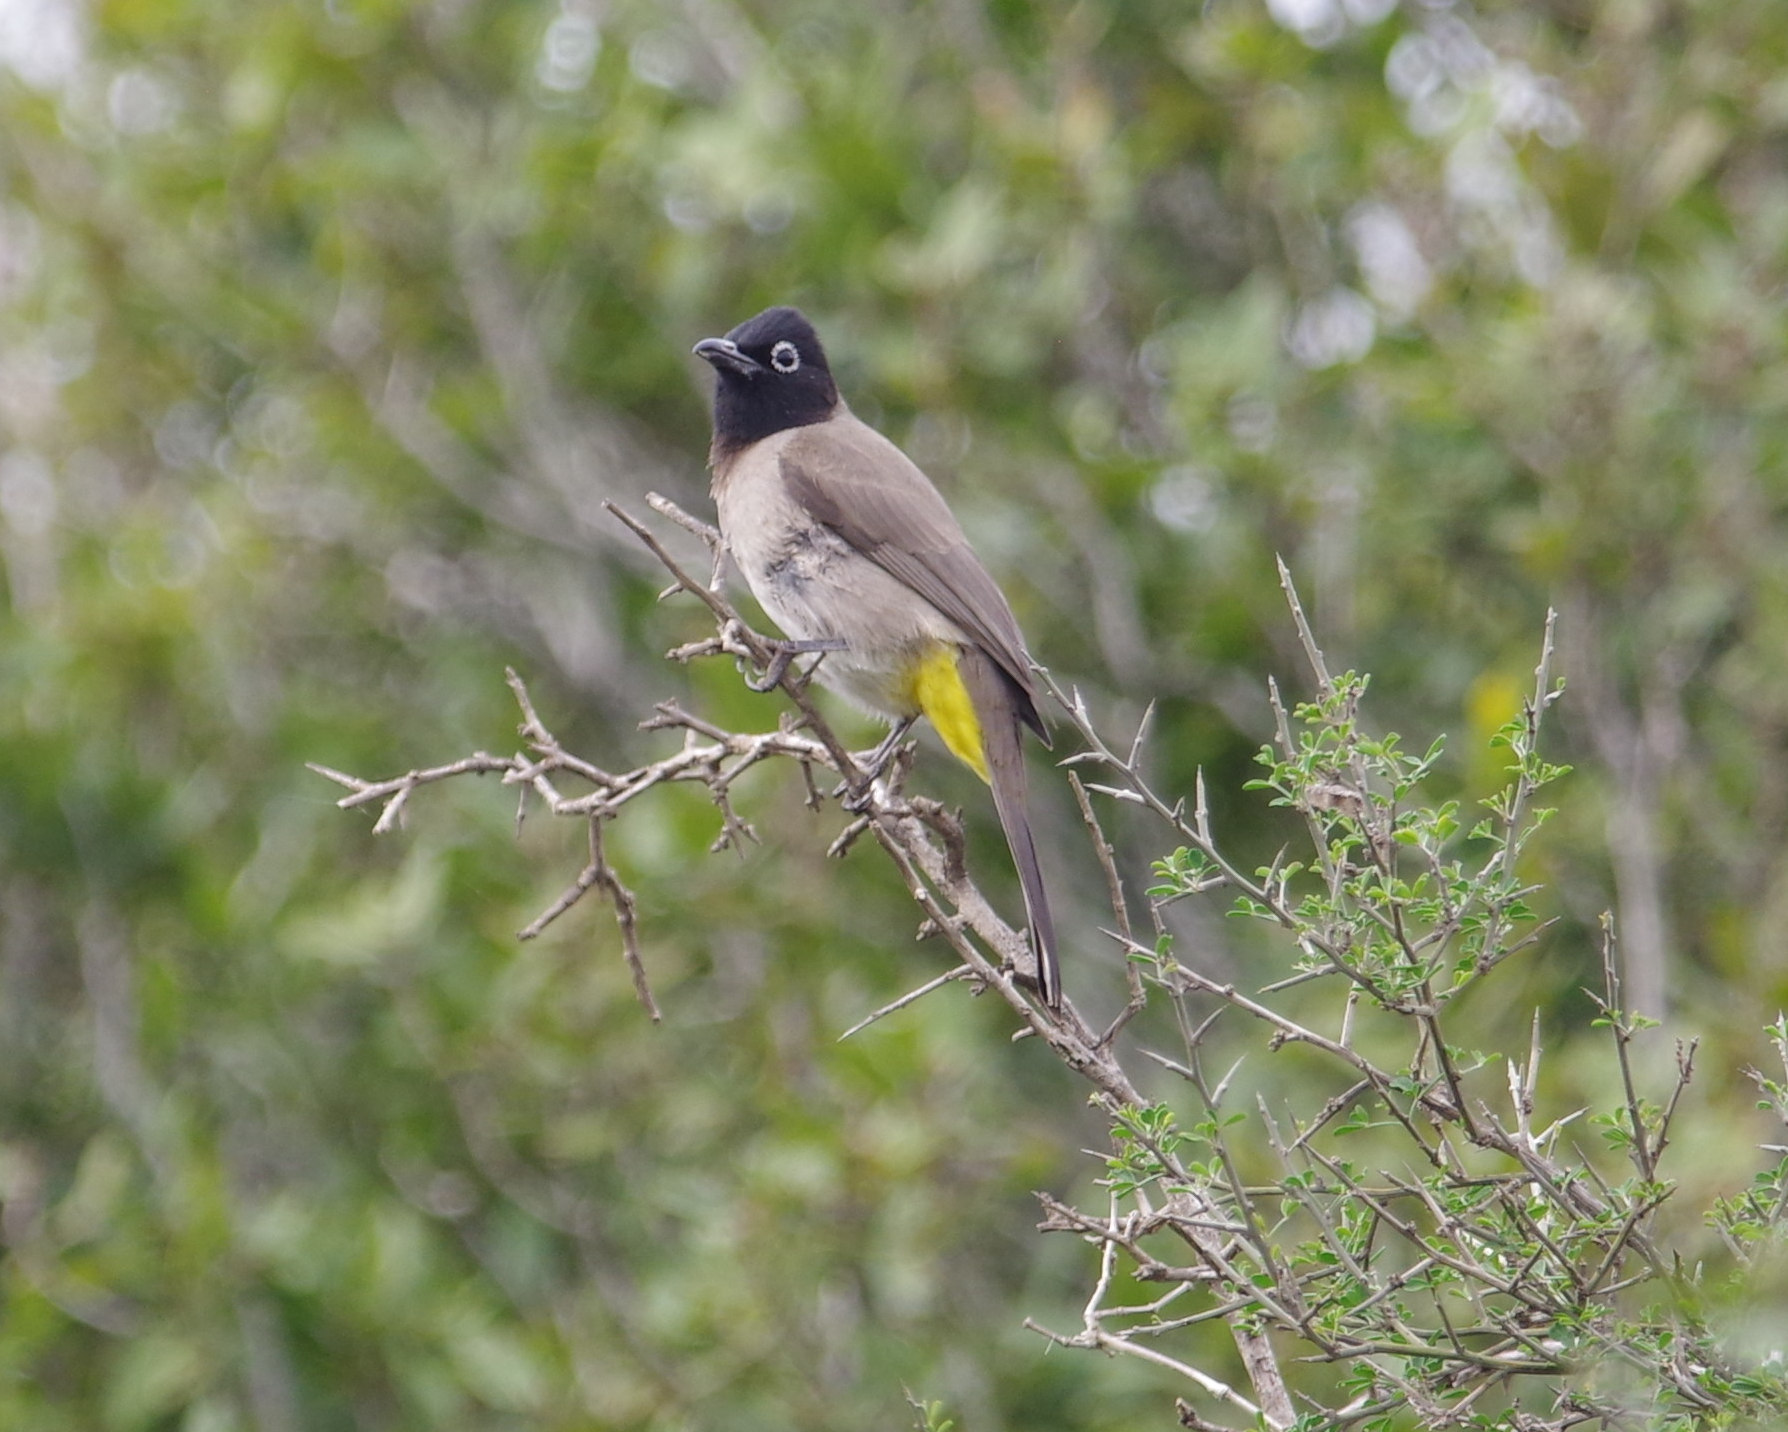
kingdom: Animalia
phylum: Chordata
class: Aves
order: Passeriformes
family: Pycnonotidae
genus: Pycnonotus
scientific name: Pycnonotus xanthopygos
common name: White-spectacled bulbul
